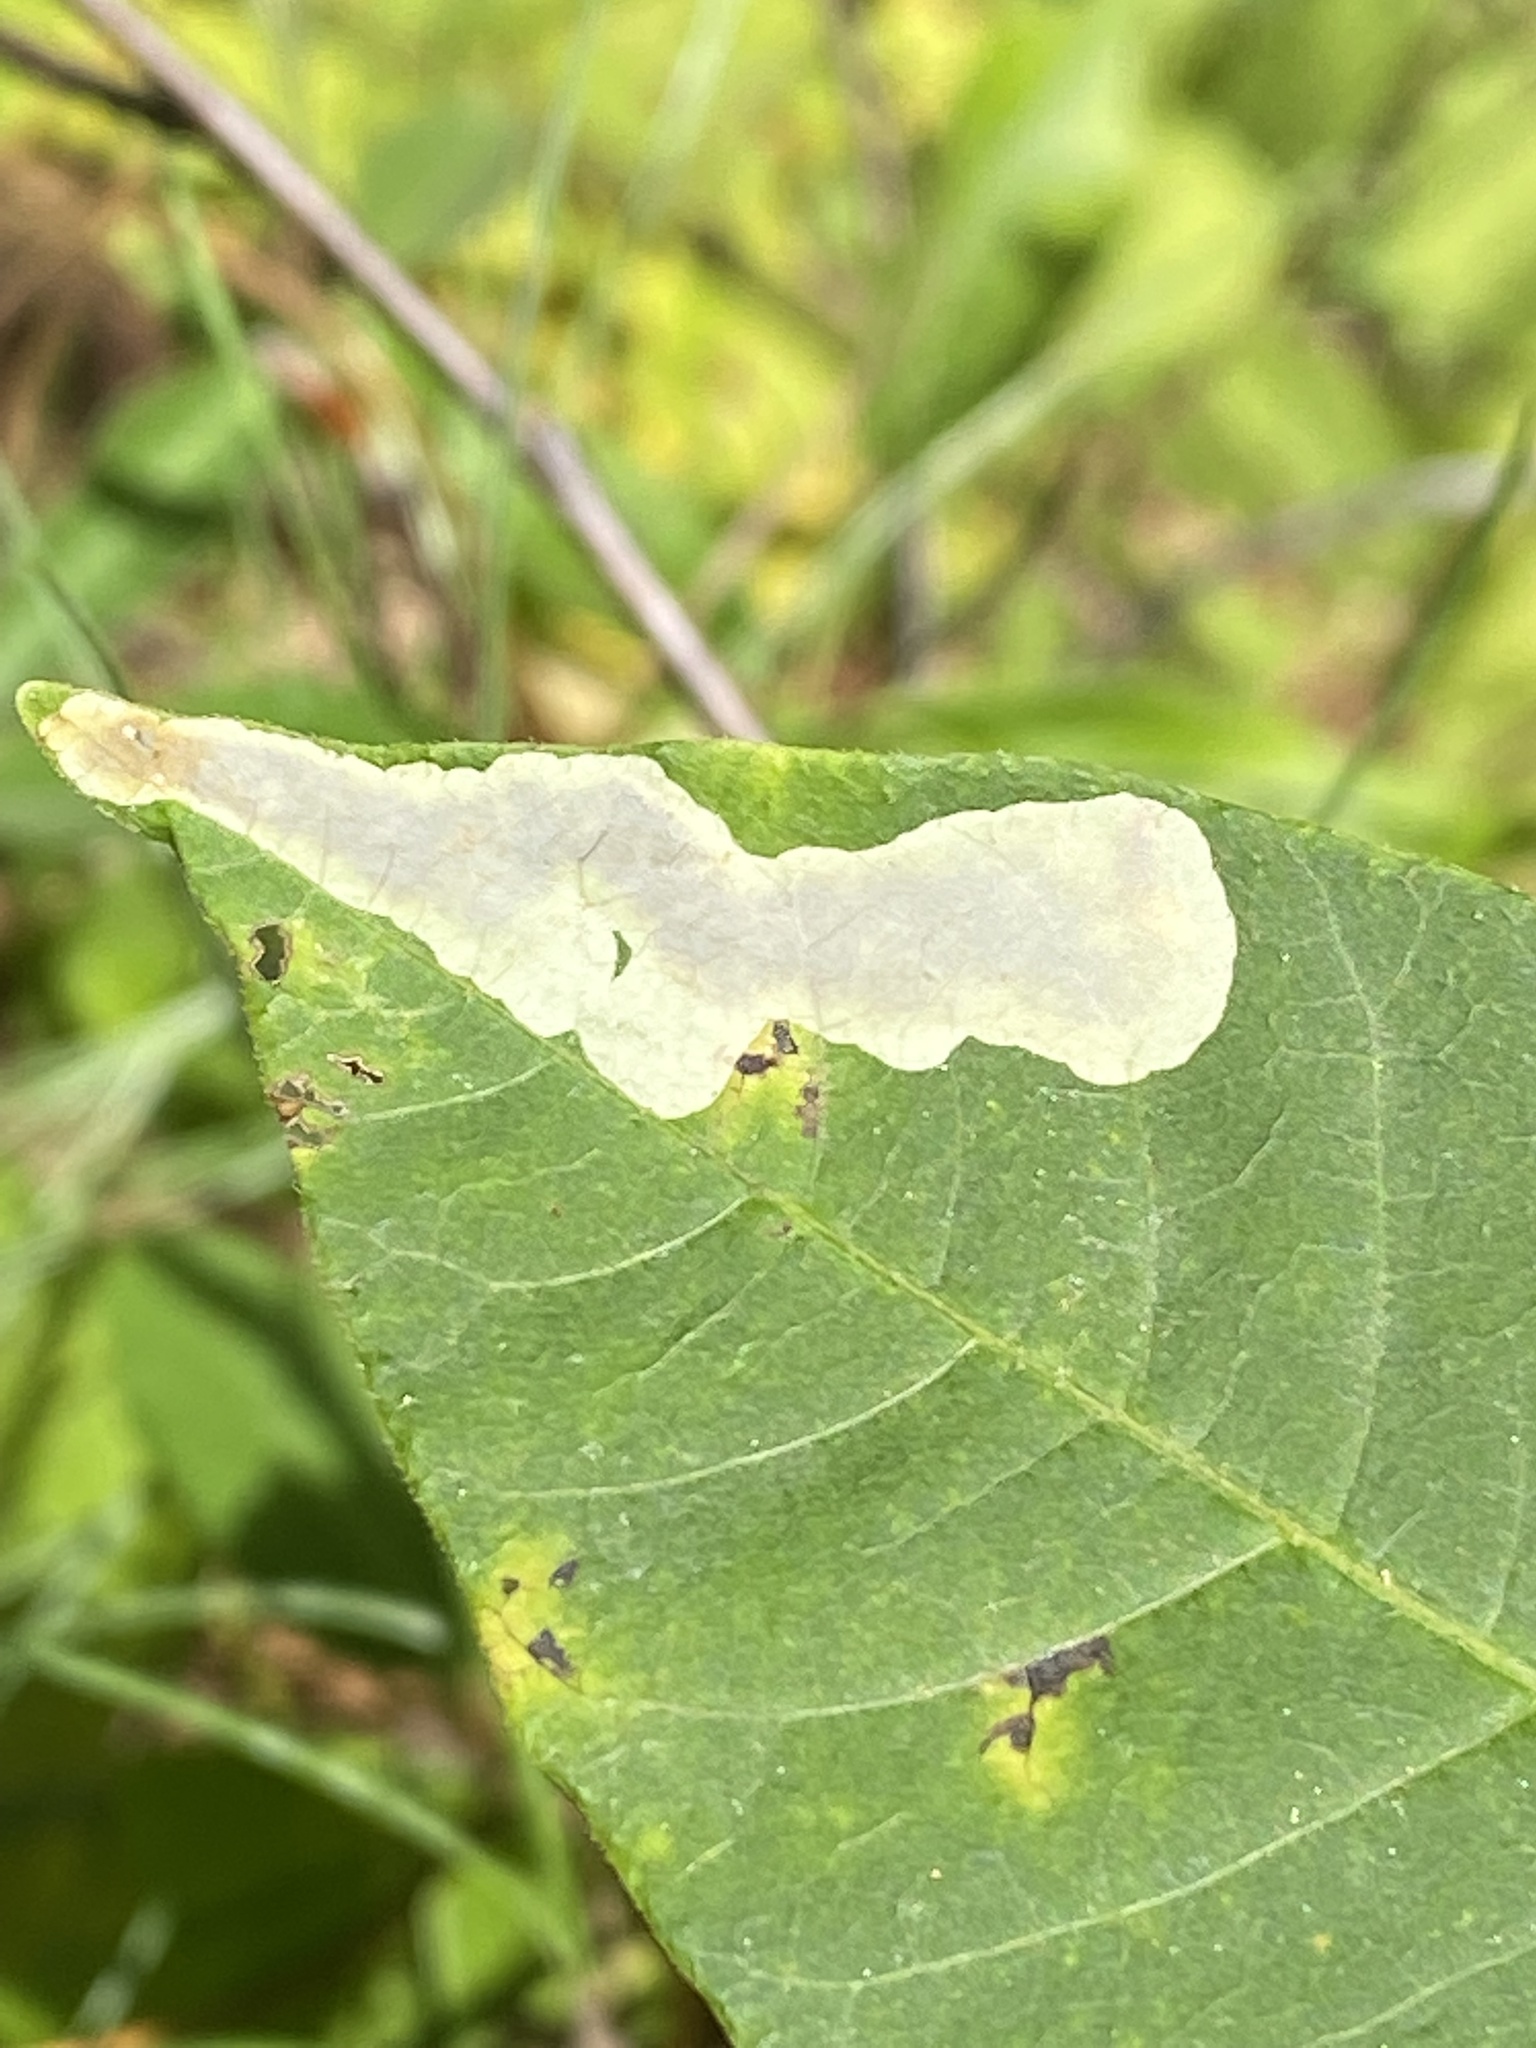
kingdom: Animalia
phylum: Arthropoda
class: Insecta
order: Lepidoptera
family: Gracillariidae
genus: Cameraria
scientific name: Cameraria guttifinitella
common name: Poison ivy leaf-miner moth
